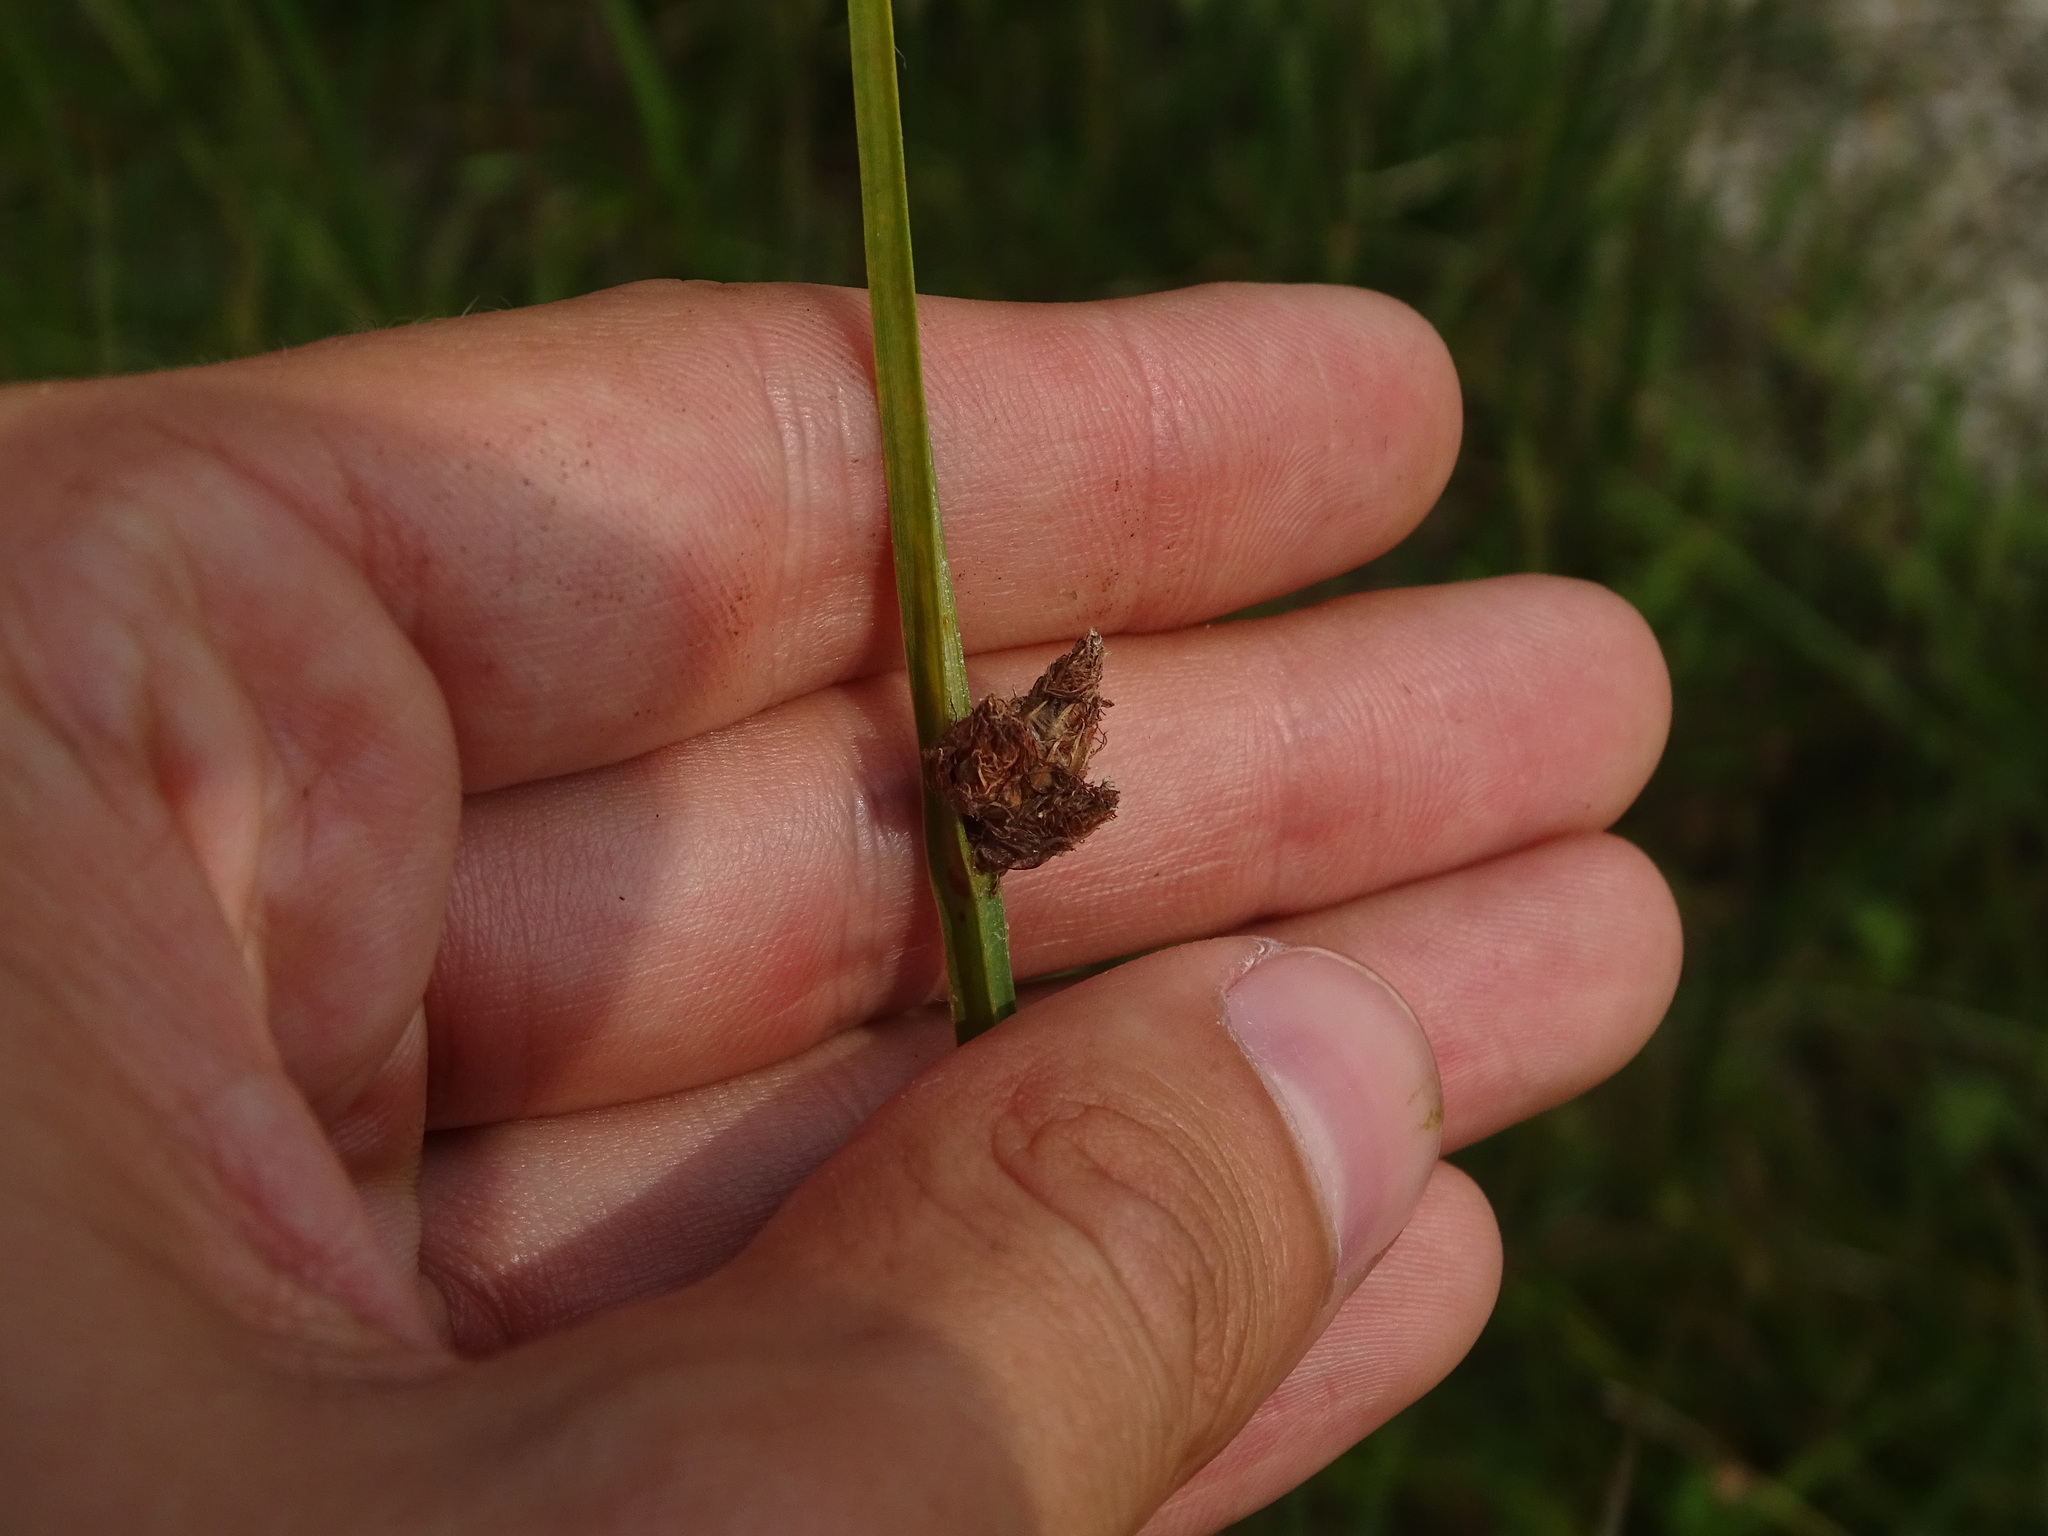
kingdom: Plantae
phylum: Tracheophyta
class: Liliopsida
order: Poales
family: Cyperaceae
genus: Schoenoplectus
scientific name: Schoenoplectus pungens
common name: Sharp club-rush
